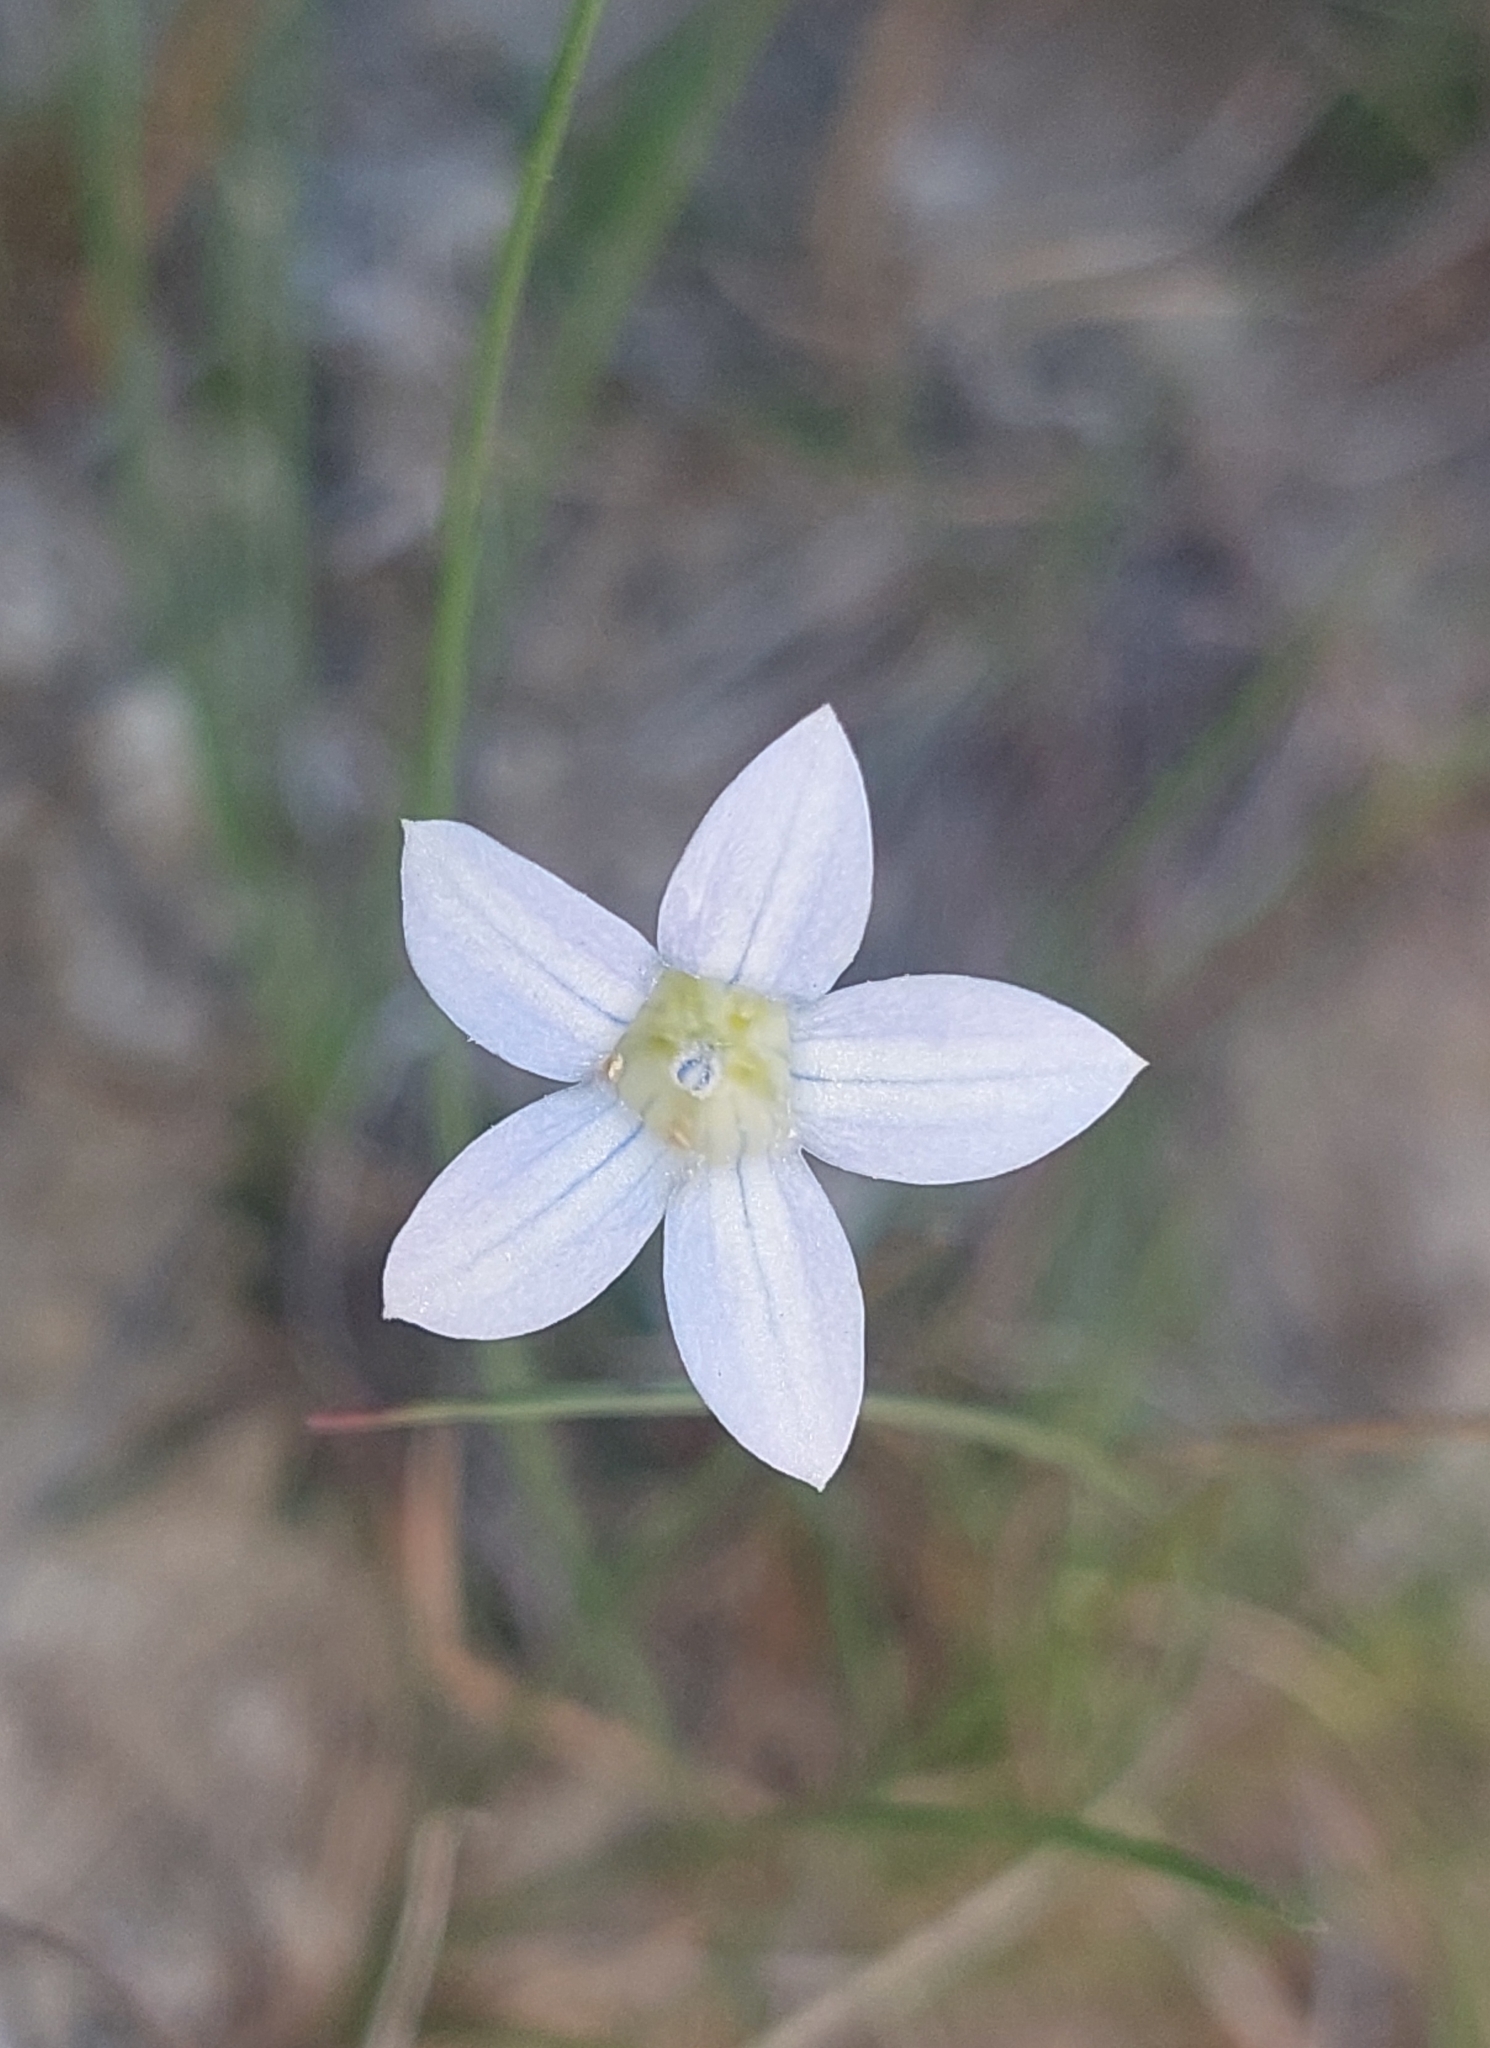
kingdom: Plantae
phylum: Tracheophyta
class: Magnoliopsida
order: Asterales
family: Campanulaceae
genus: Wahlenbergia
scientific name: Wahlenbergia albomarginata
